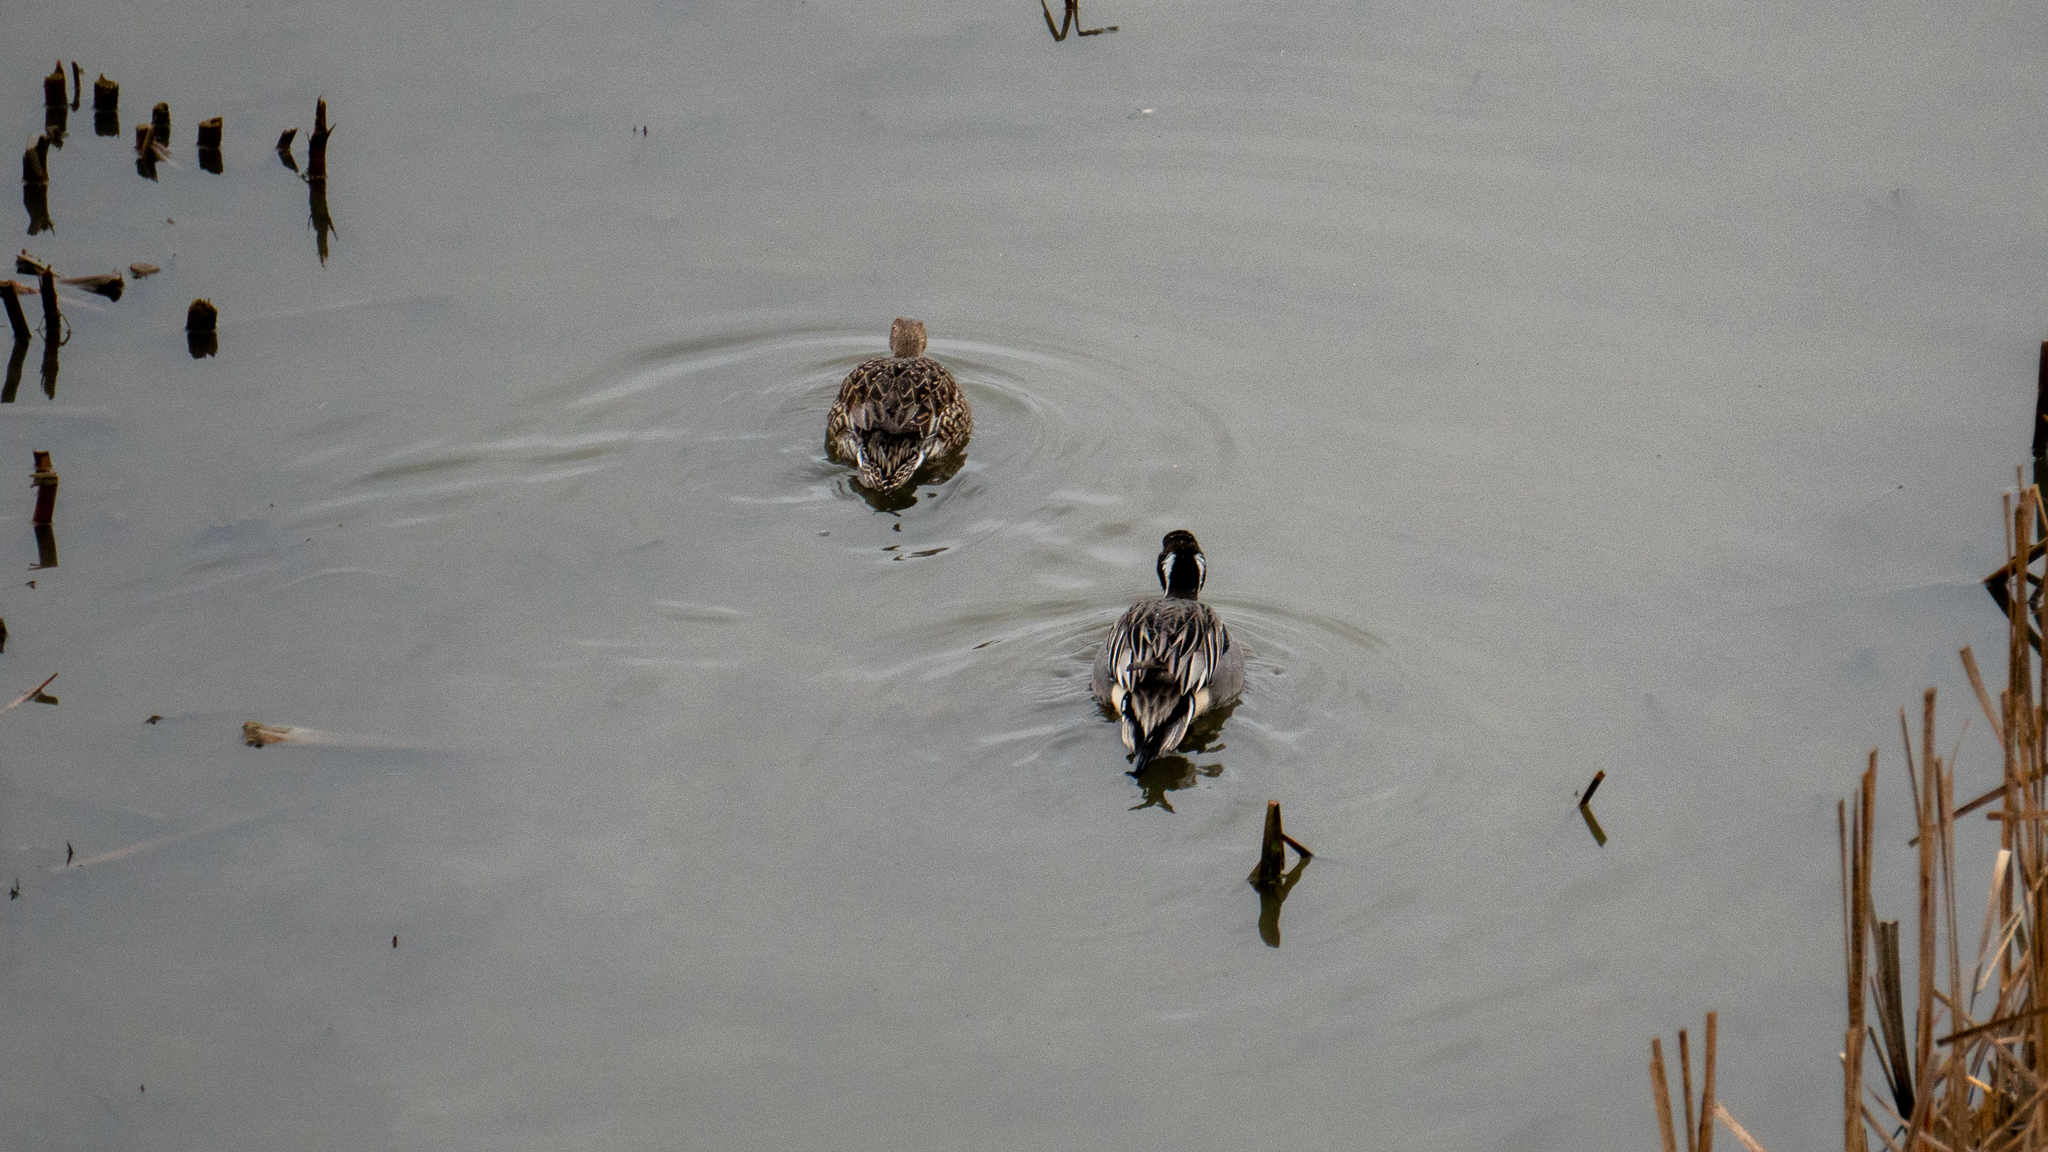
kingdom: Animalia
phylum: Chordata
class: Aves
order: Anseriformes
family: Anatidae
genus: Anas
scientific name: Anas acuta
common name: Northern pintail
